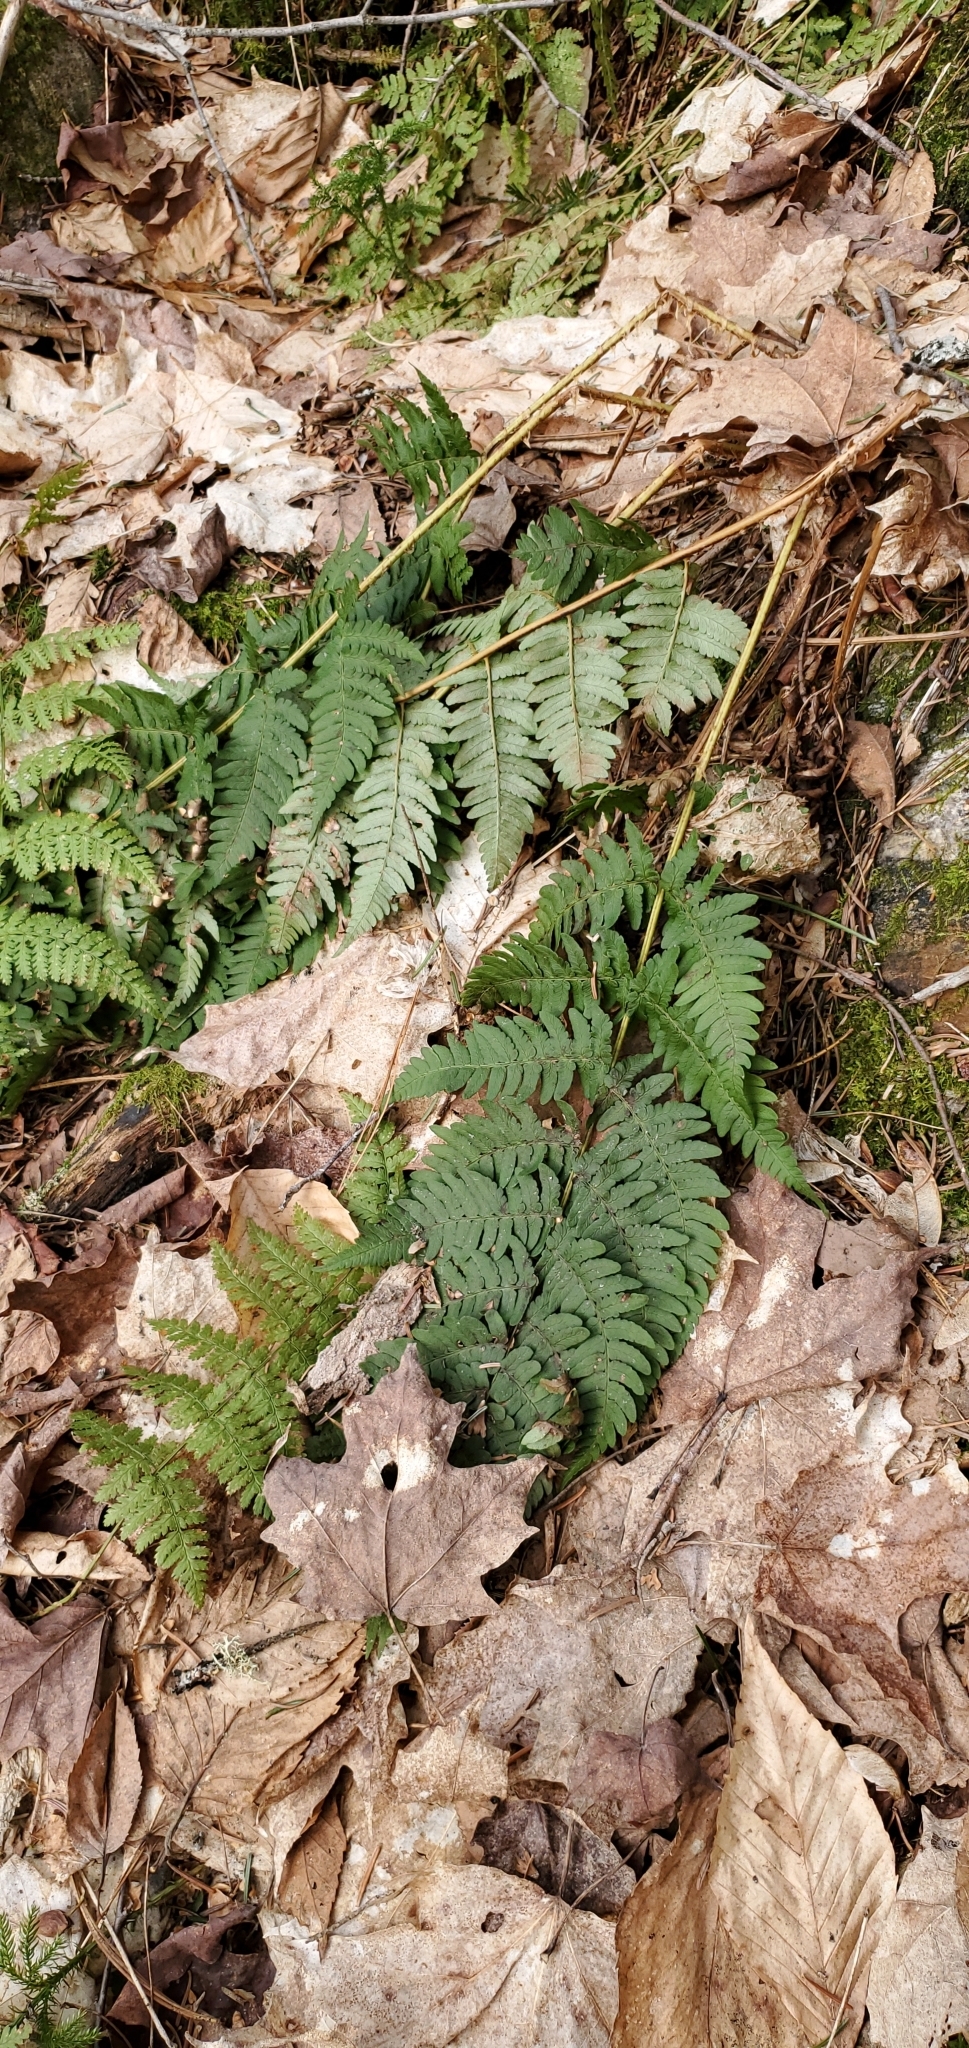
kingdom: Plantae
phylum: Tracheophyta
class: Polypodiopsida
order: Polypodiales
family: Dryopteridaceae
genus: Dryopteris
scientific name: Dryopteris marginalis
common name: Marginal wood fern
